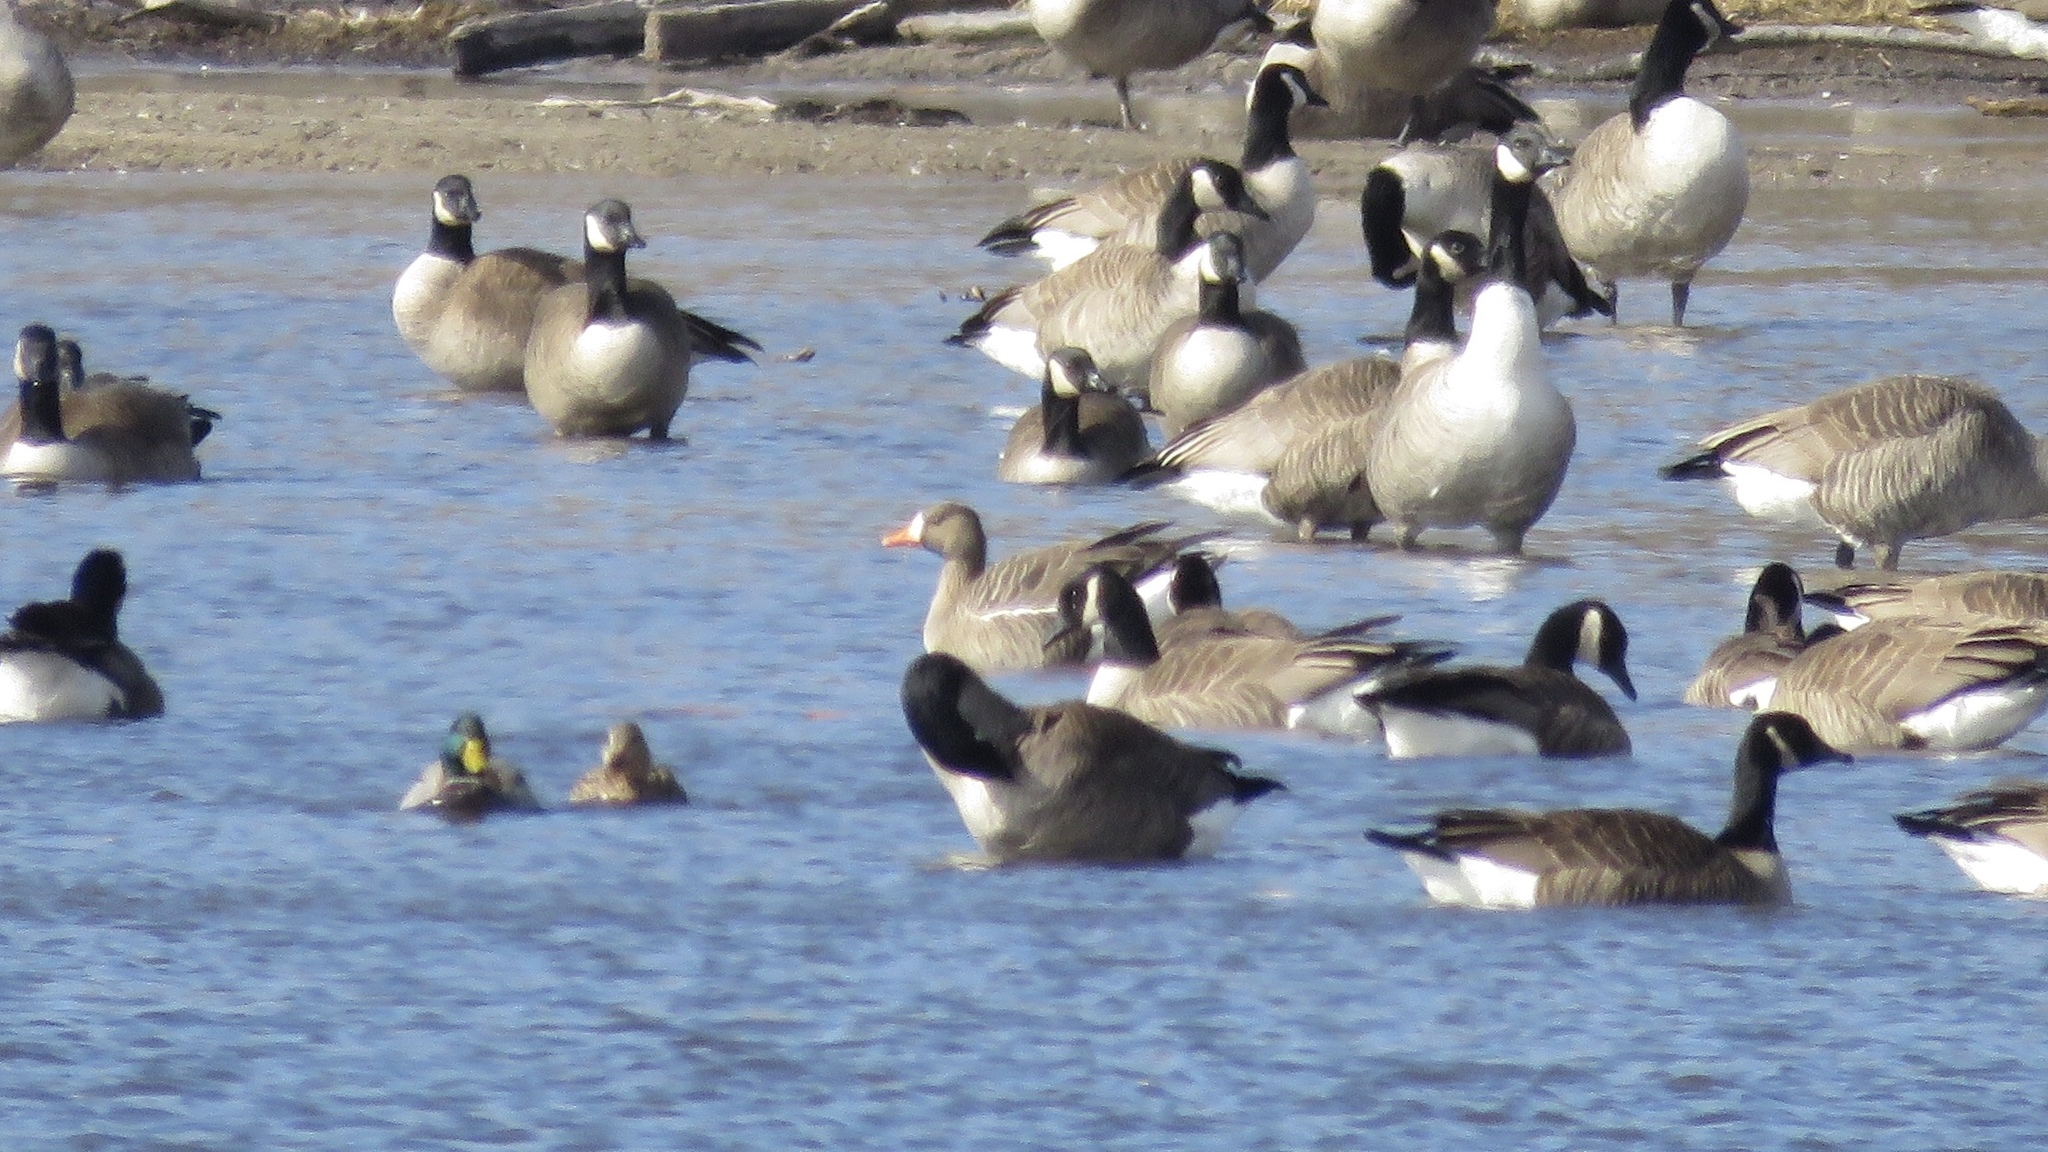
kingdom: Animalia
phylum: Chordata
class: Aves
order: Anseriformes
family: Anatidae
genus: Anser
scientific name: Anser albifrons
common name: Greater white-fronted goose
